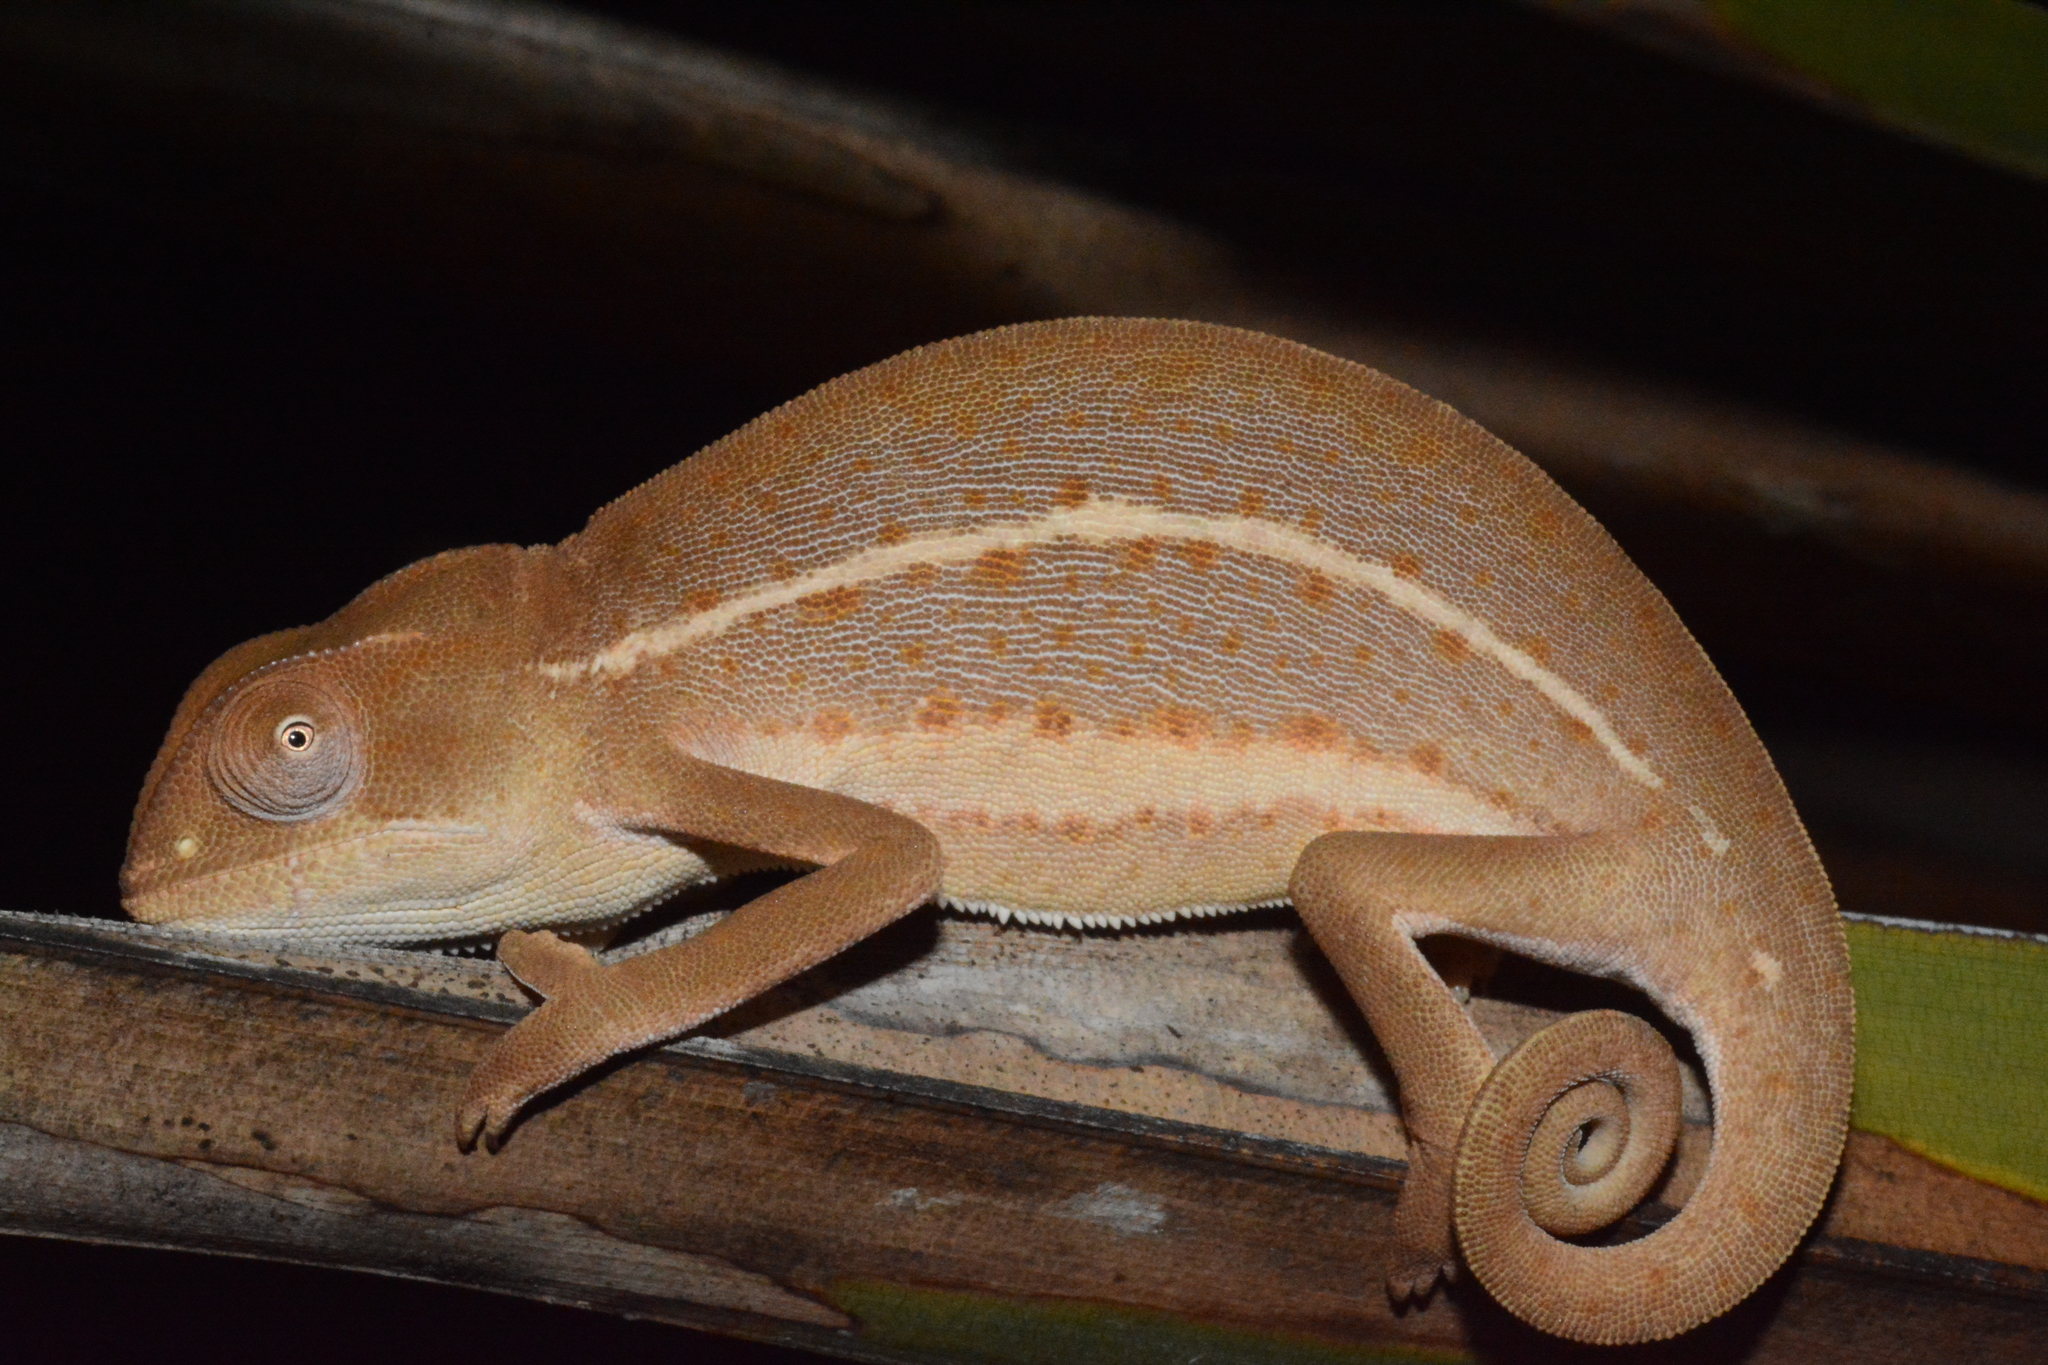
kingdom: Animalia
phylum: Chordata
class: Squamata
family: Chamaeleonidae
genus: Chamaeleo
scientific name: Chamaeleo laevigatus
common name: Smooth chameleon
